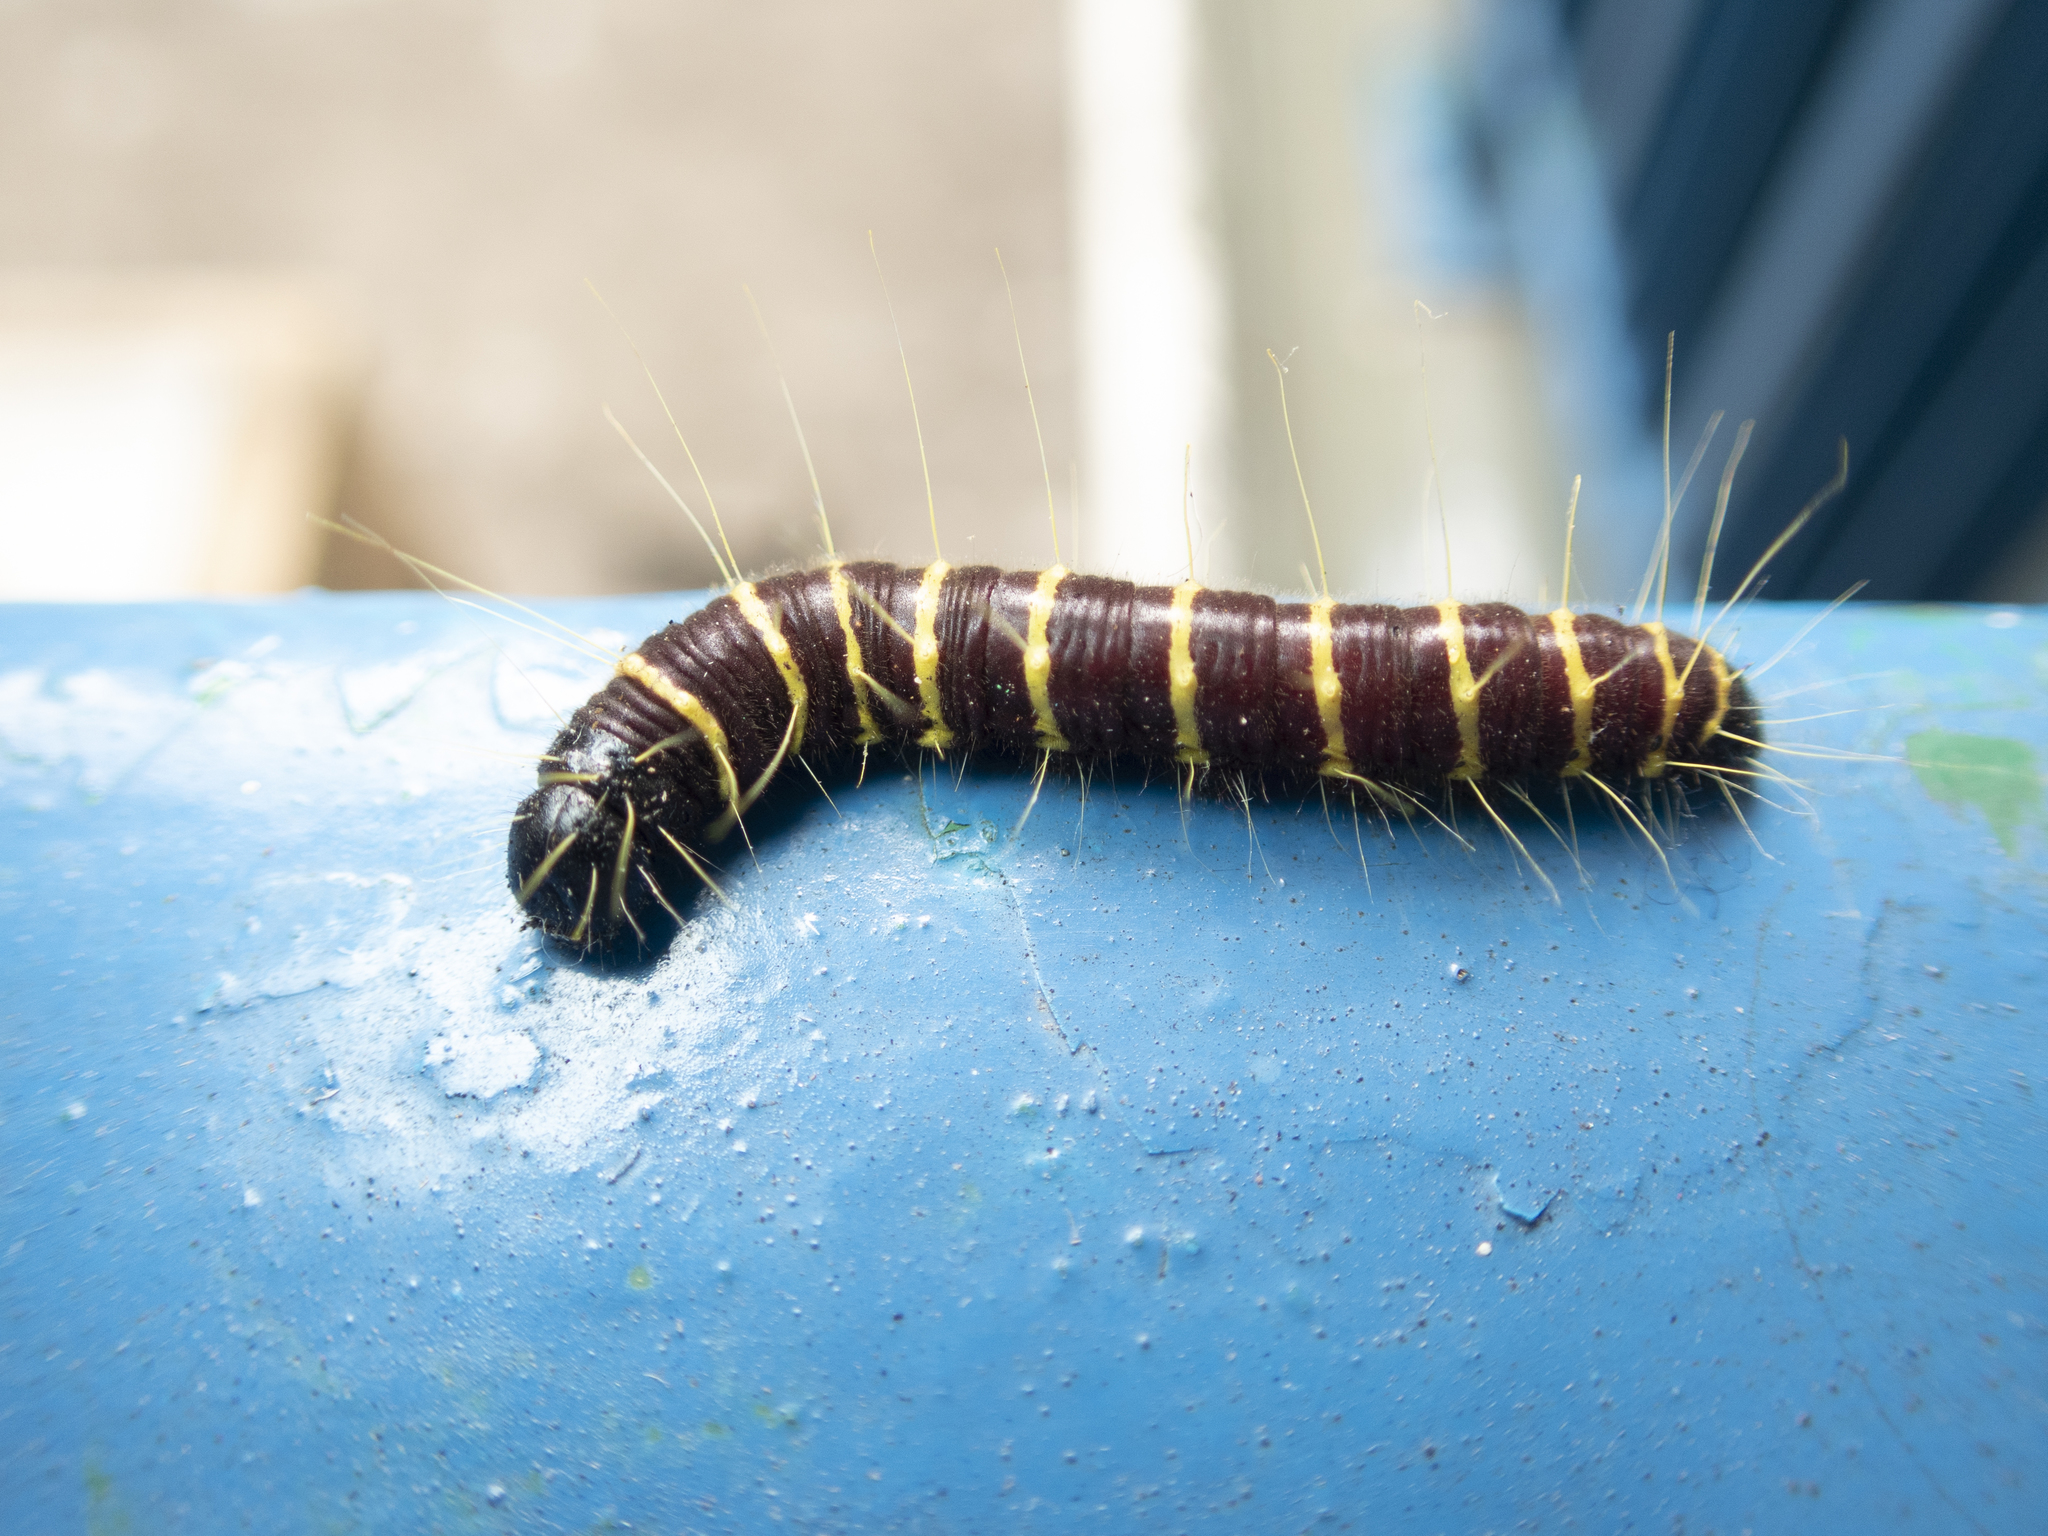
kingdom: Animalia
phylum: Arthropoda
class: Insecta
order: Lepidoptera
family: Pieridae
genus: Delias
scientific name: Delias pasithoe
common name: Red-base jezebel
